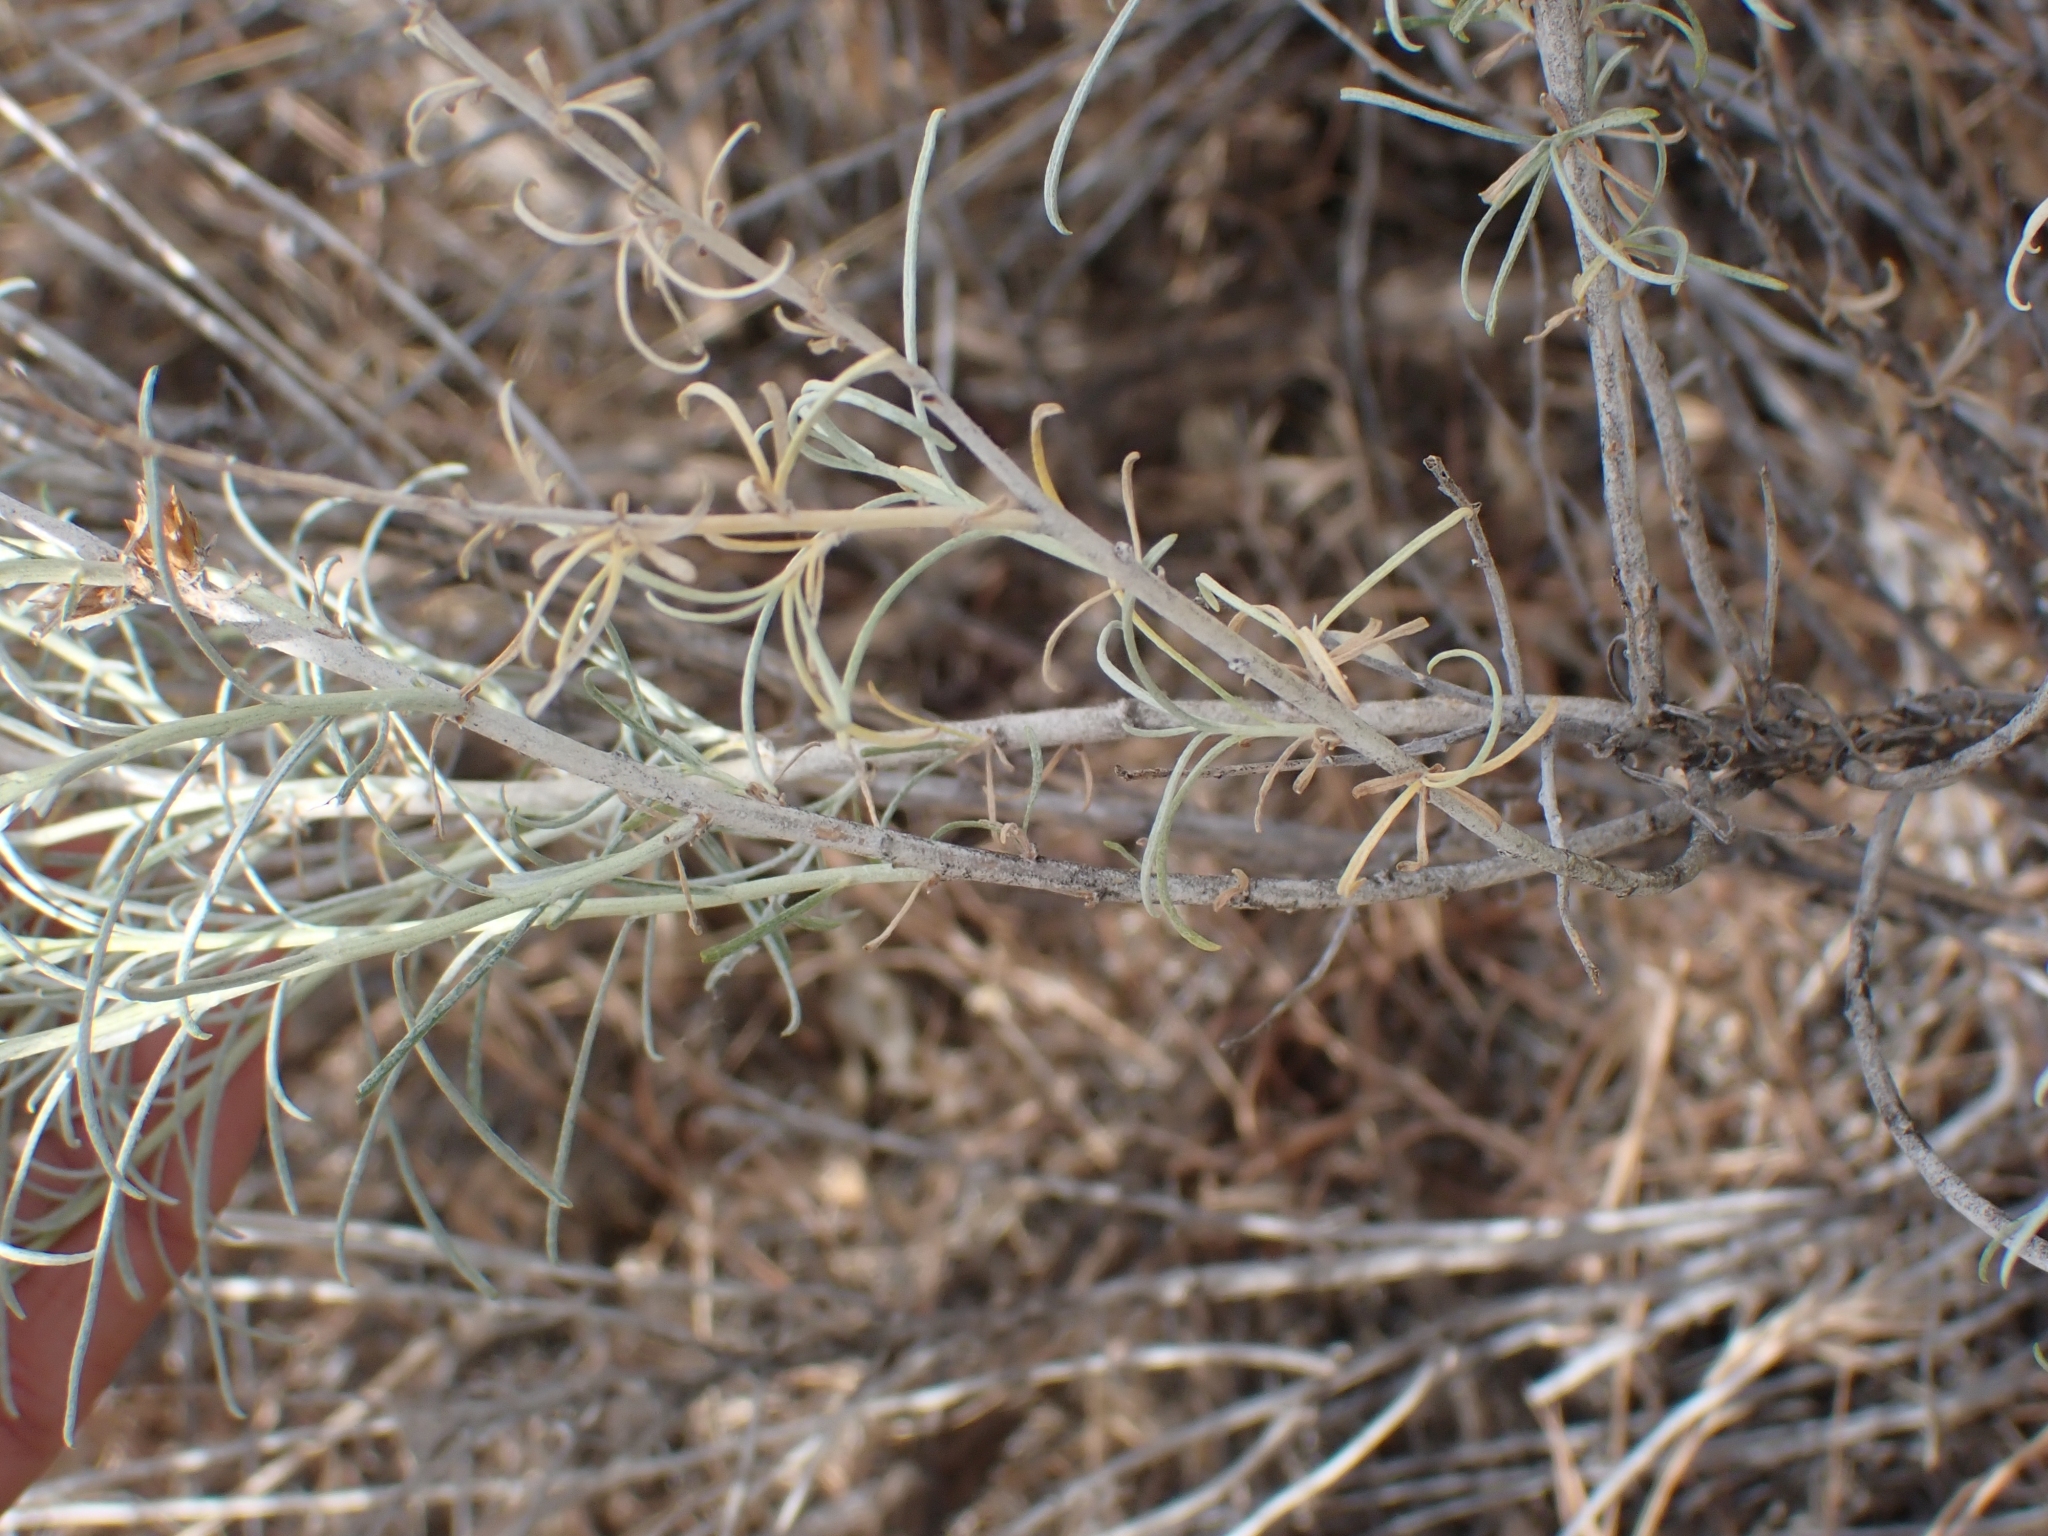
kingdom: Plantae
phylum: Tracheophyta
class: Magnoliopsida
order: Asterales
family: Asteraceae
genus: Ericameria
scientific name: Ericameria nauseosa
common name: Rubber rabbitbrush
